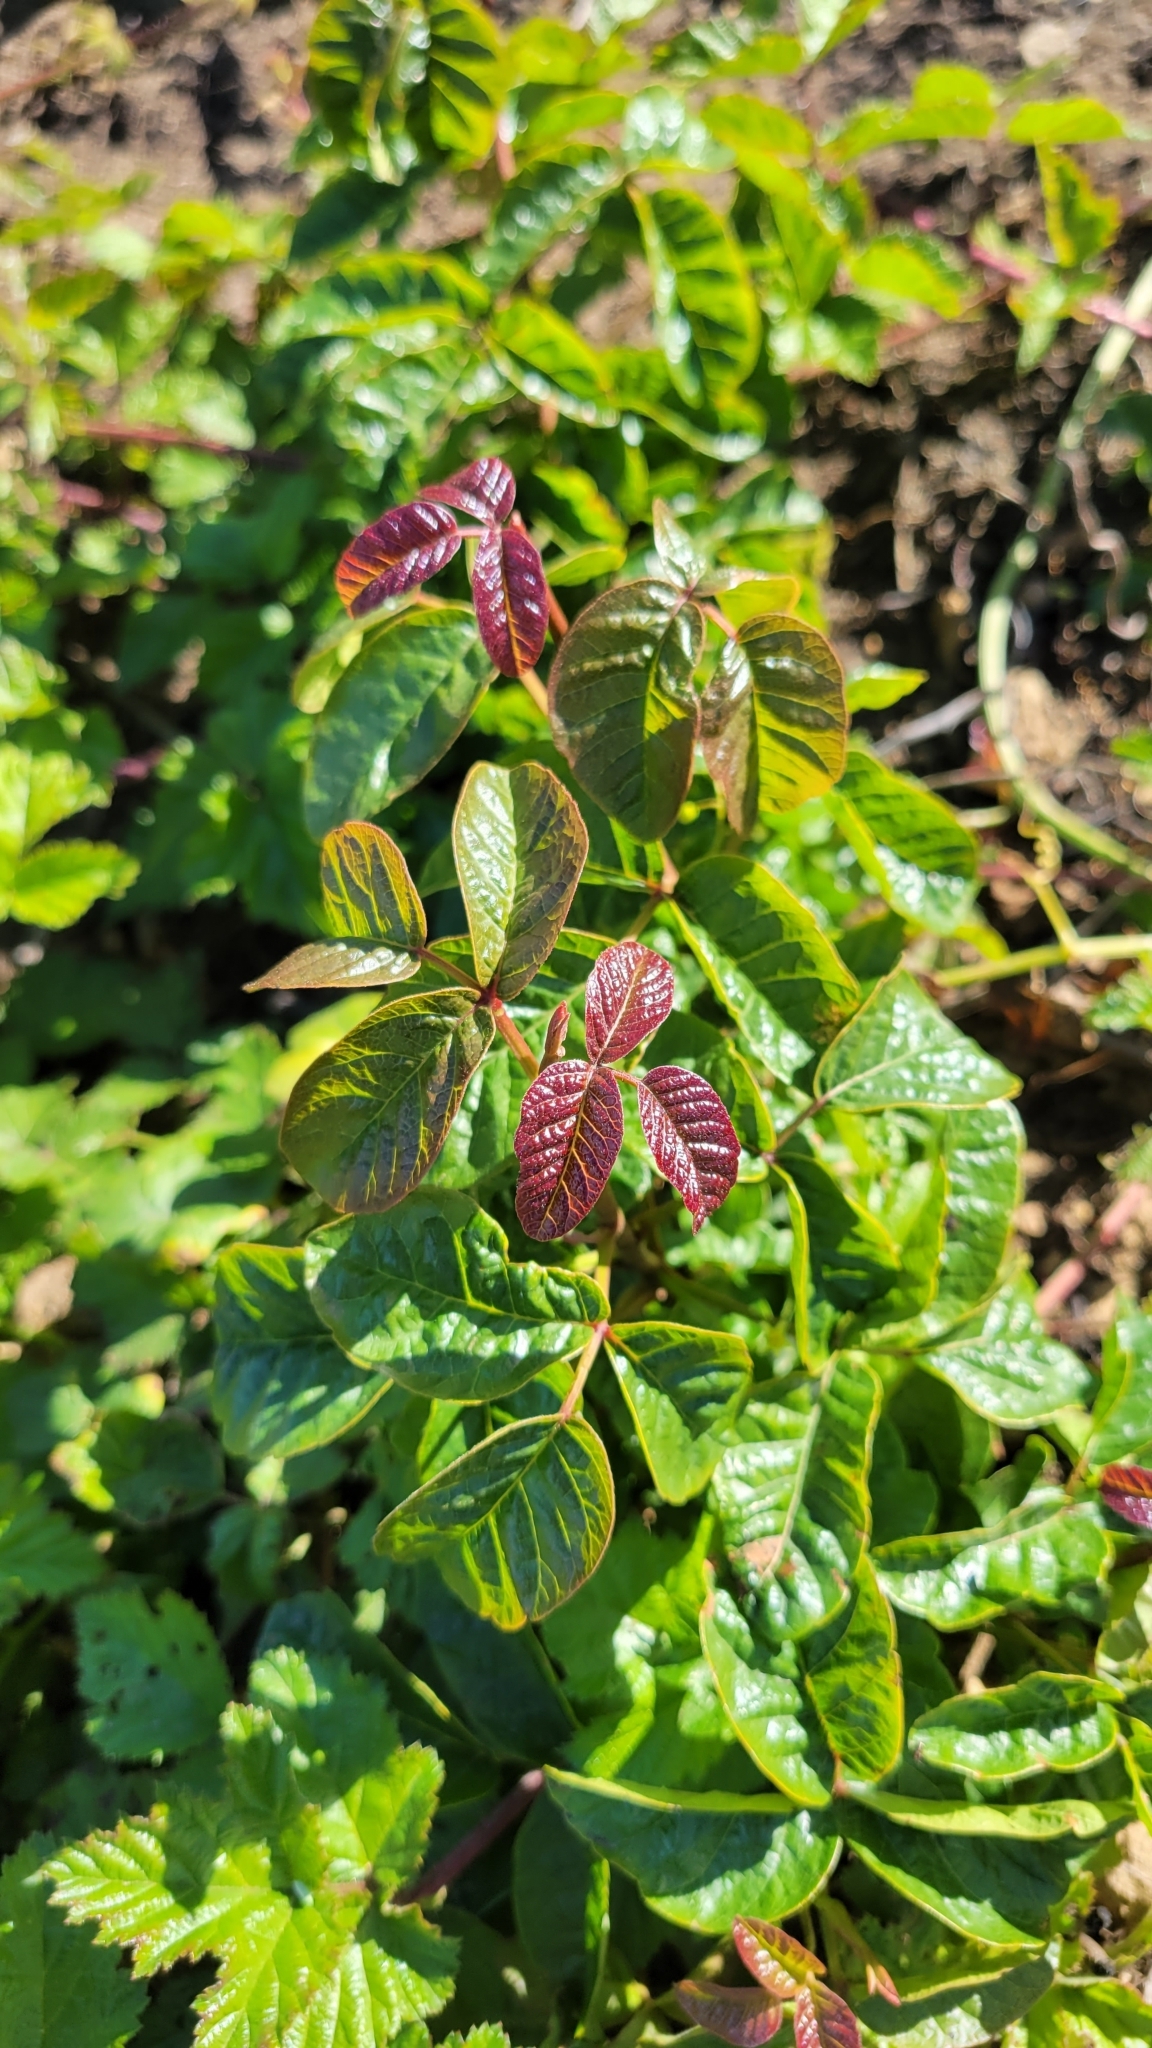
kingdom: Plantae
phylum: Tracheophyta
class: Magnoliopsida
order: Sapindales
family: Anacardiaceae
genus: Toxicodendron
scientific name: Toxicodendron diversilobum
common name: Pacific poison-oak
